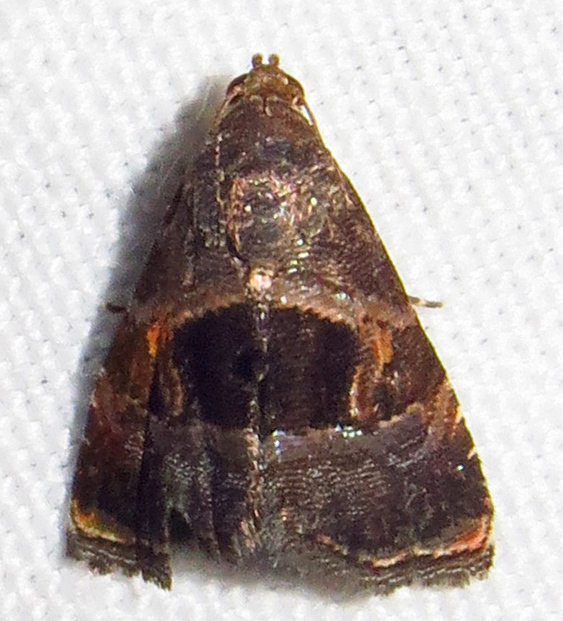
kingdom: Animalia
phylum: Arthropoda
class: Insecta
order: Lepidoptera
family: Noctuidae
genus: Tripudia
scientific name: Tripudia rectangula
